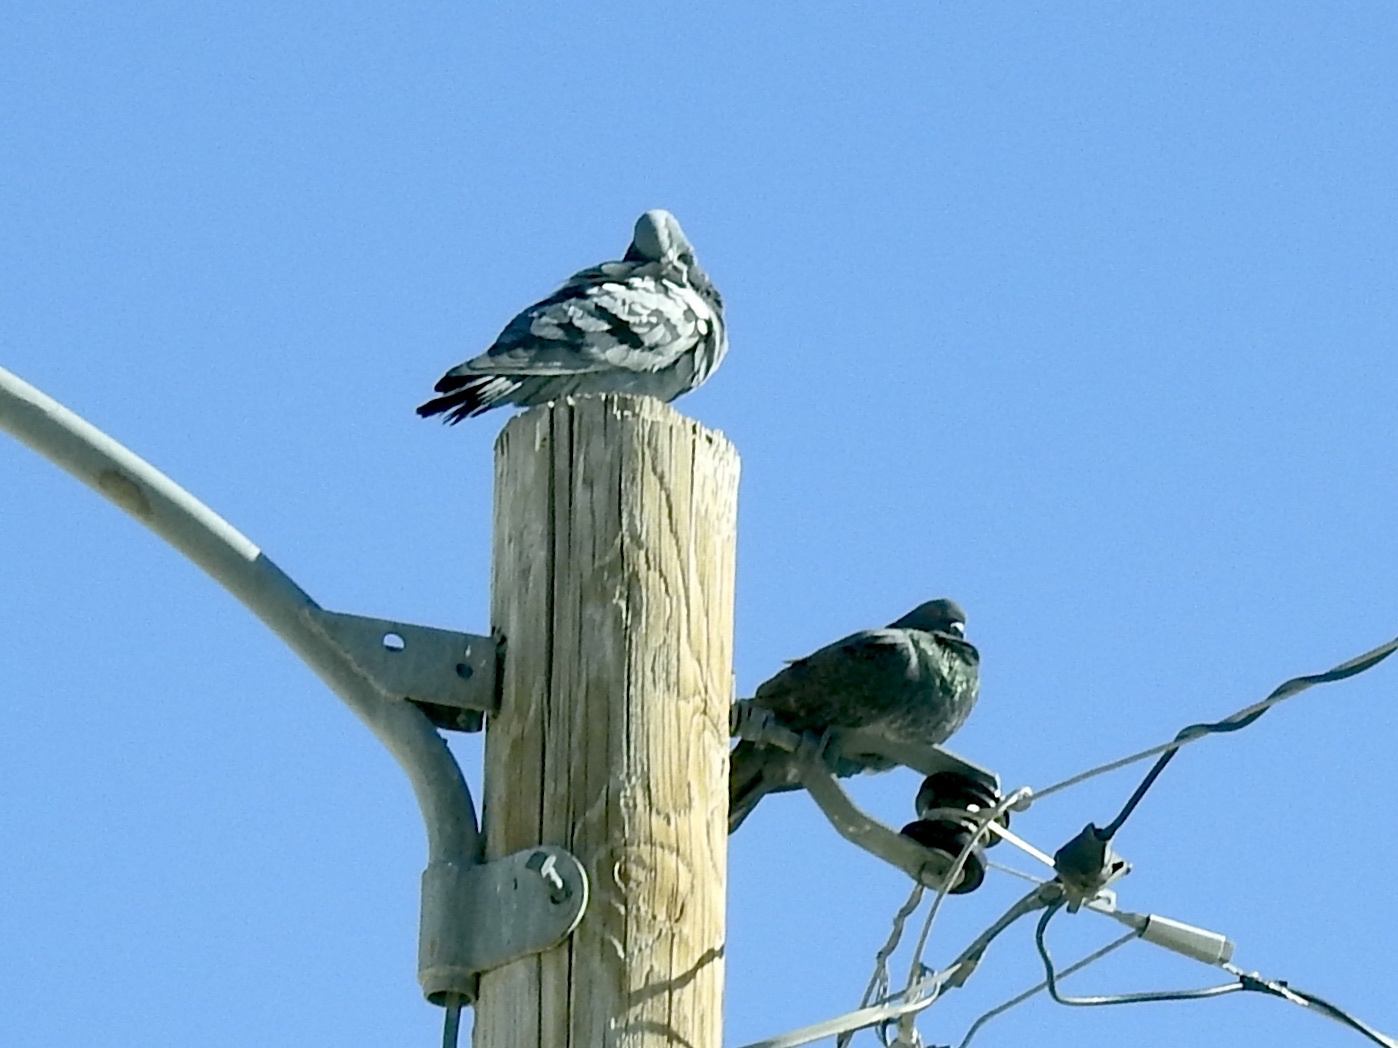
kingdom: Animalia
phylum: Chordata
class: Aves
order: Columbiformes
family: Columbidae
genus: Columba
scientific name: Columba livia
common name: Rock pigeon
